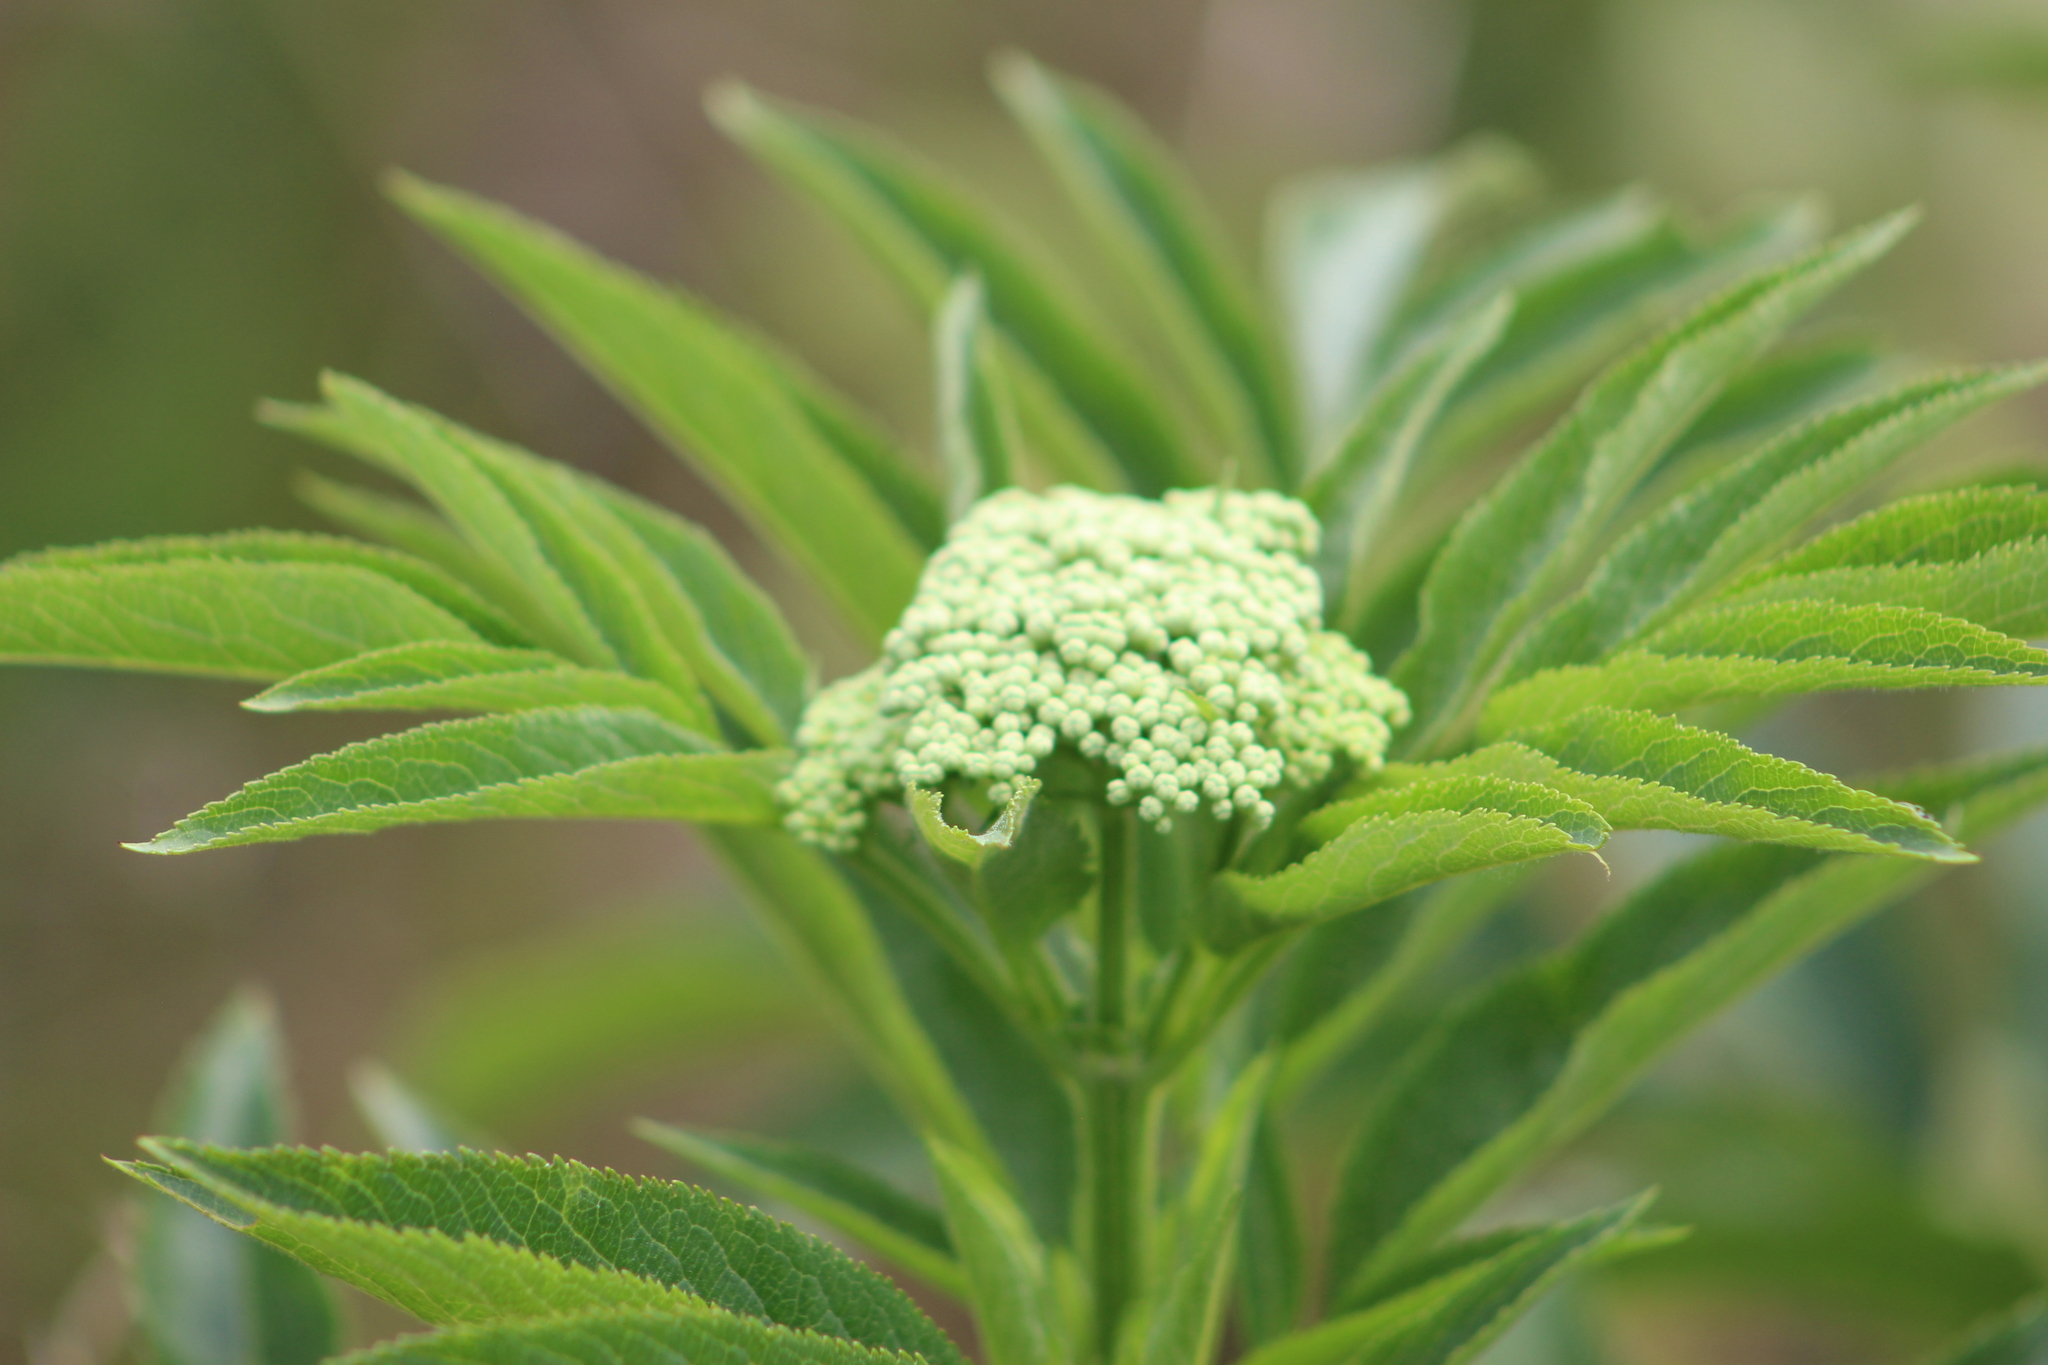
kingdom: Plantae
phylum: Tracheophyta
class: Magnoliopsida
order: Dipsacales
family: Viburnaceae
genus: Sambucus
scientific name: Sambucus ebulus
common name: Dwarf elder
